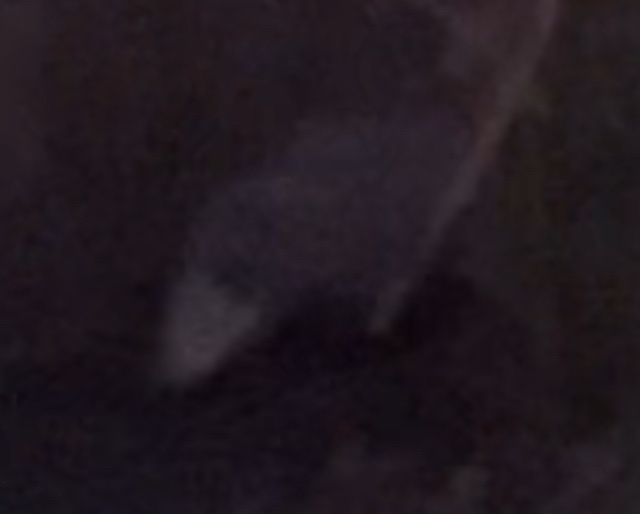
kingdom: Animalia
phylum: Chordata
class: Mammalia
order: Didelphimorphia
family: Didelphidae
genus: Didelphis
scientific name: Didelphis virginiana
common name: Virginia opossum
